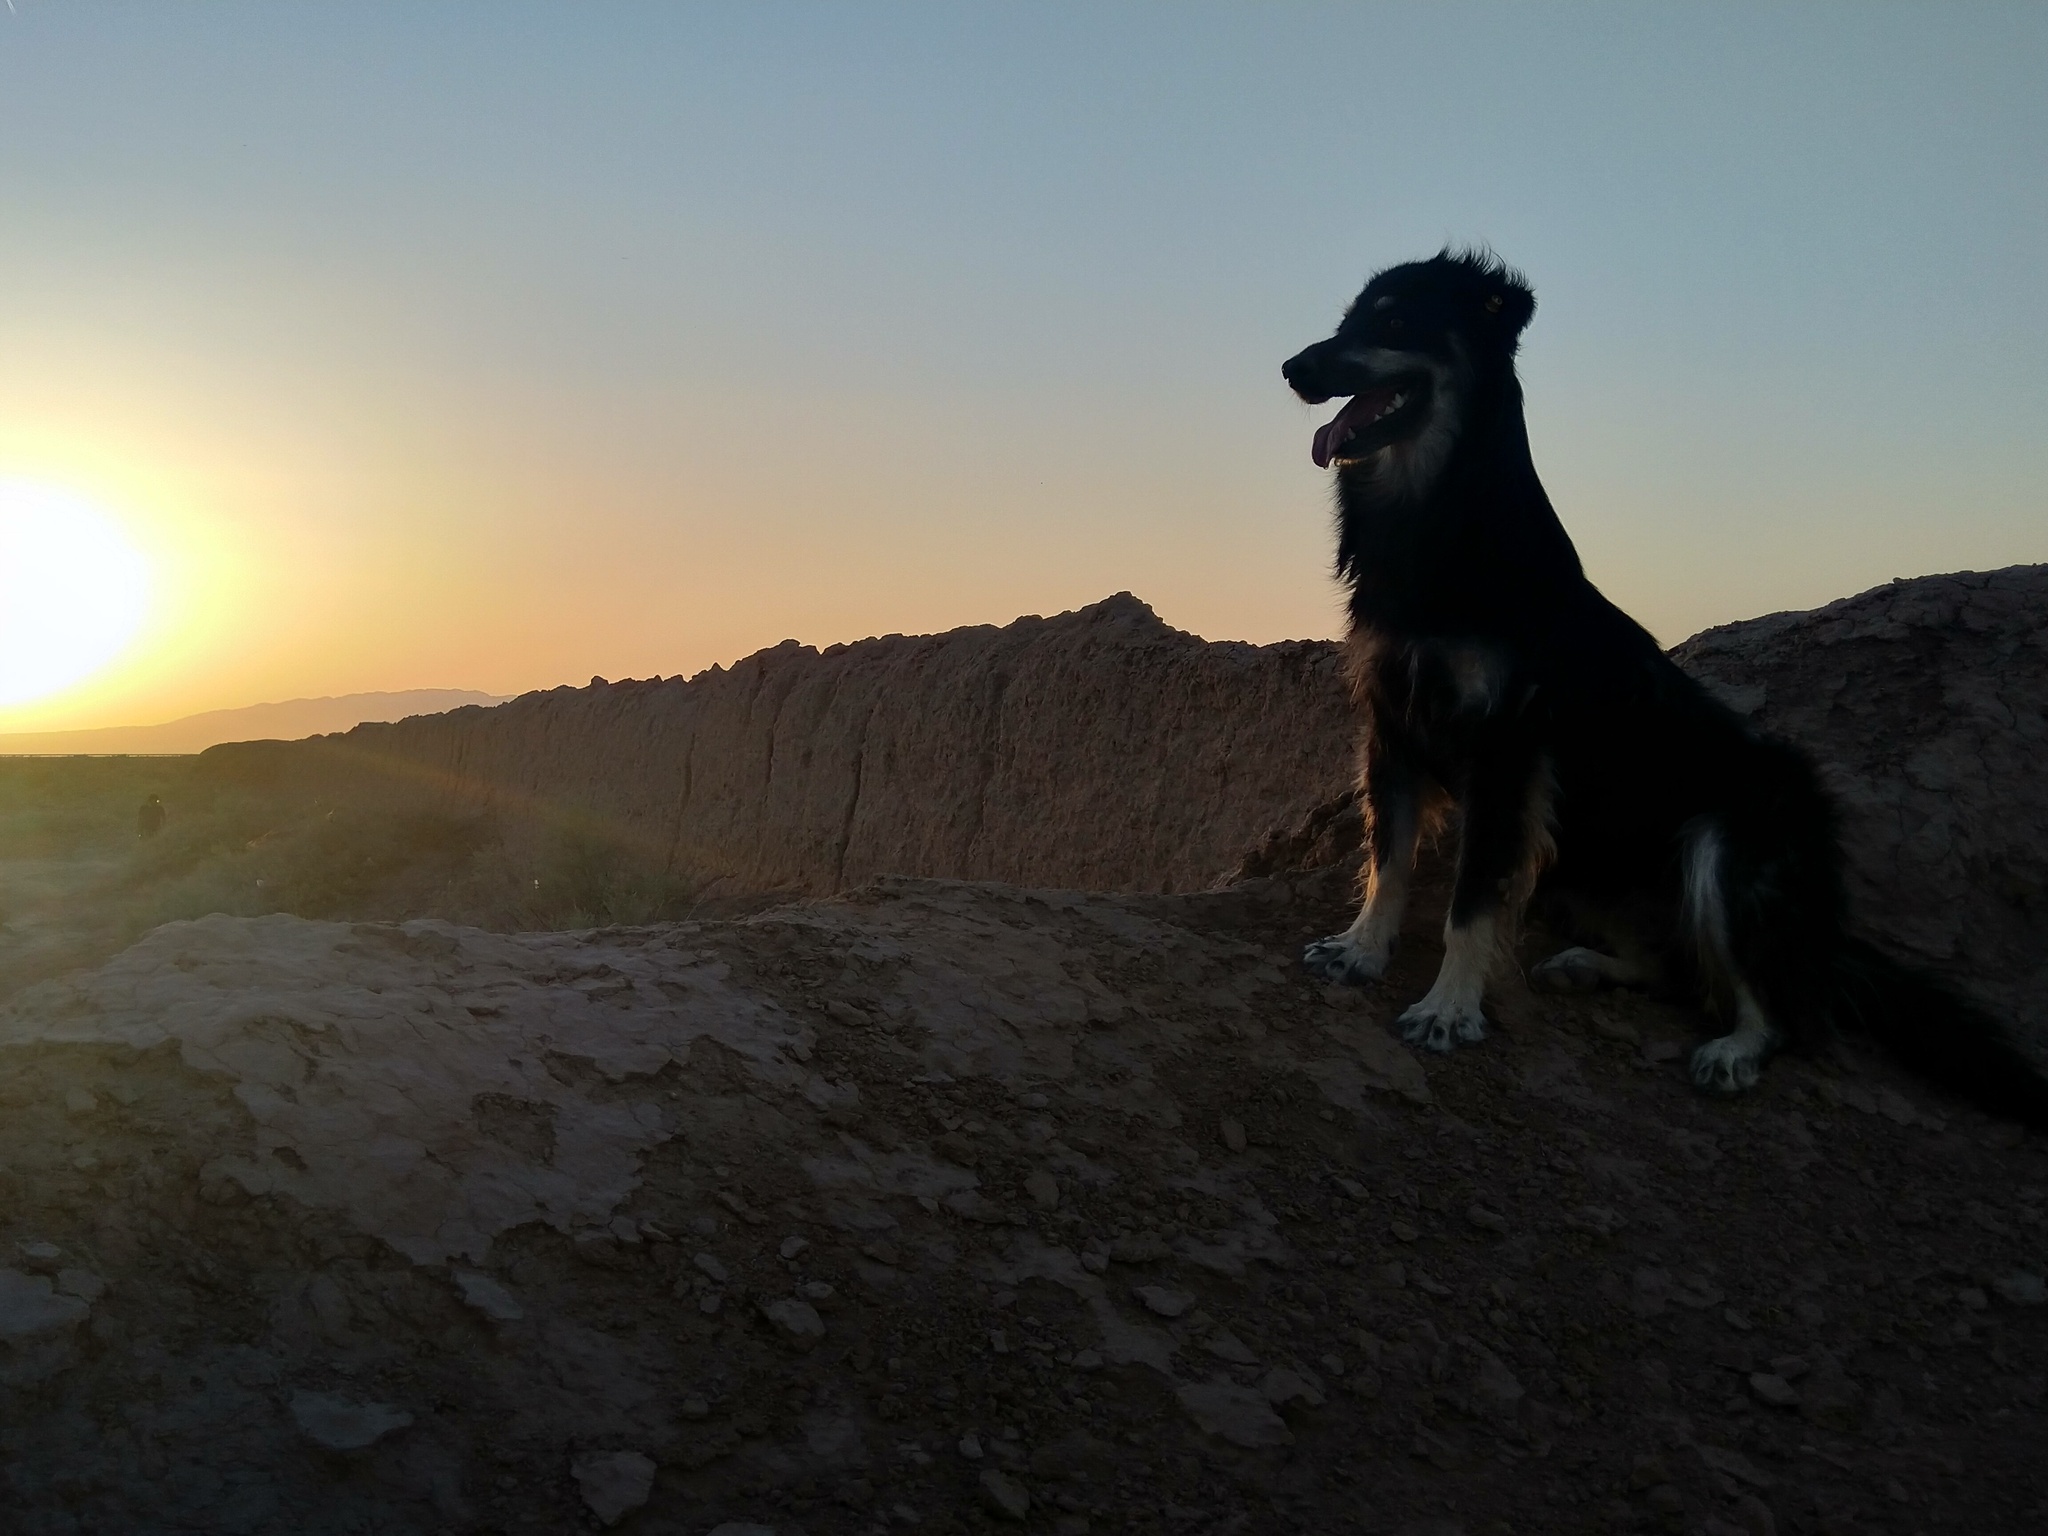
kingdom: Animalia
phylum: Chordata
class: Mammalia
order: Carnivora
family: Canidae
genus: Canis
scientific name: Canis lupus
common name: Gray wolf
